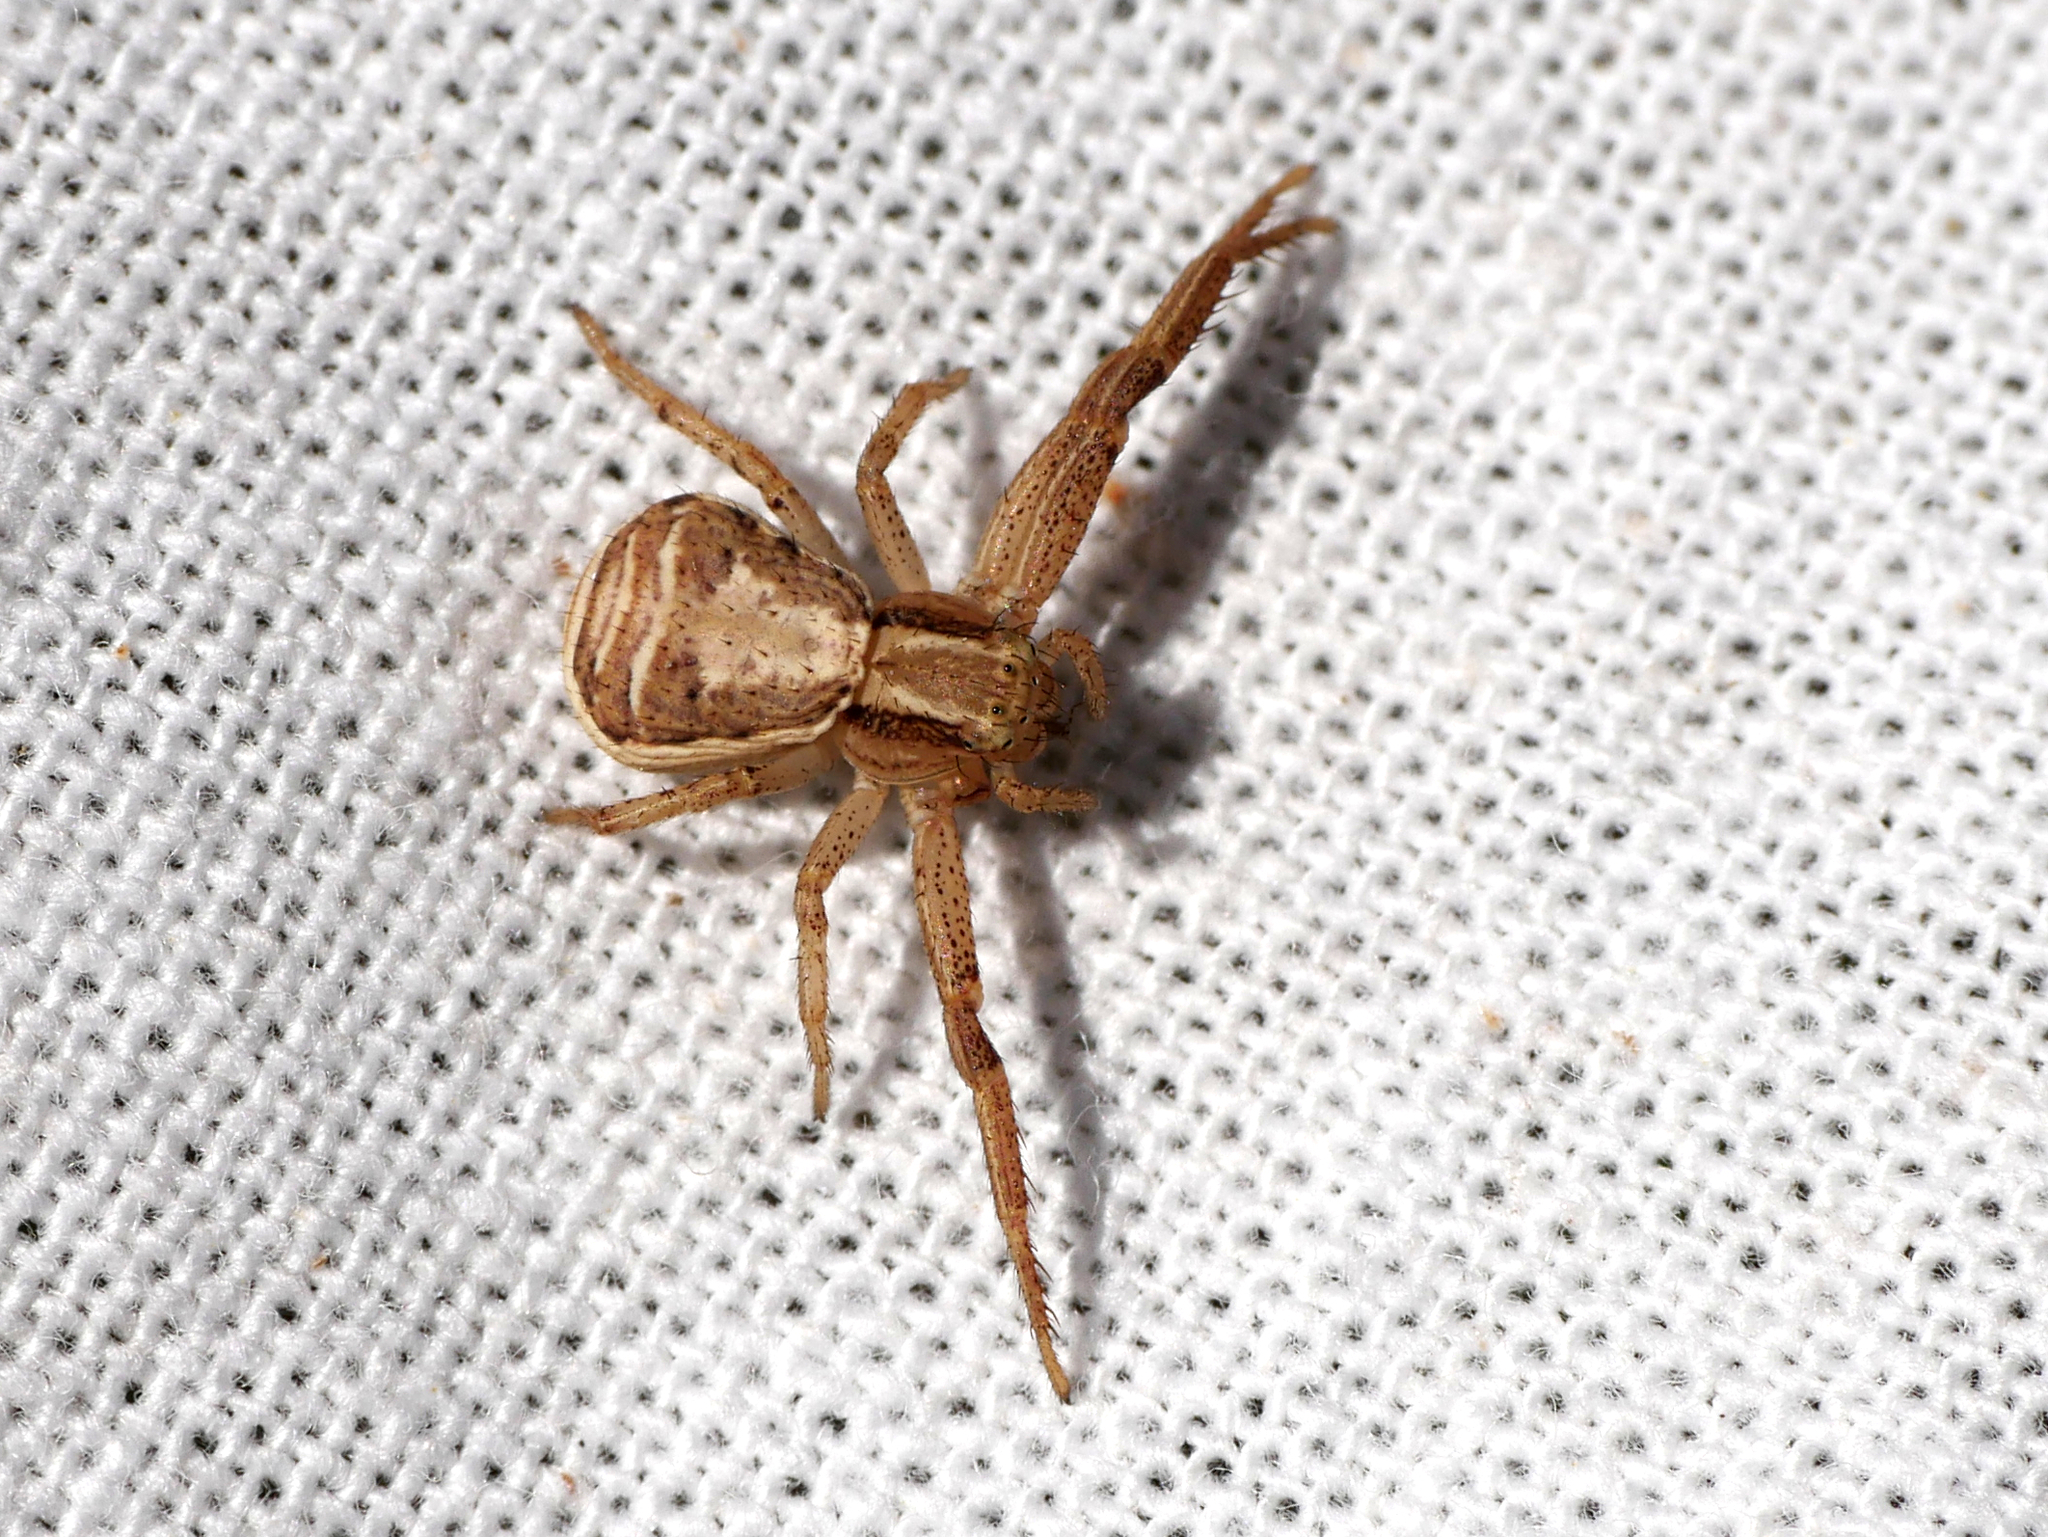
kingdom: Animalia
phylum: Arthropoda
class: Arachnida
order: Araneae
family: Thomisidae
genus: Xysticus
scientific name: Xysticus ulmi
